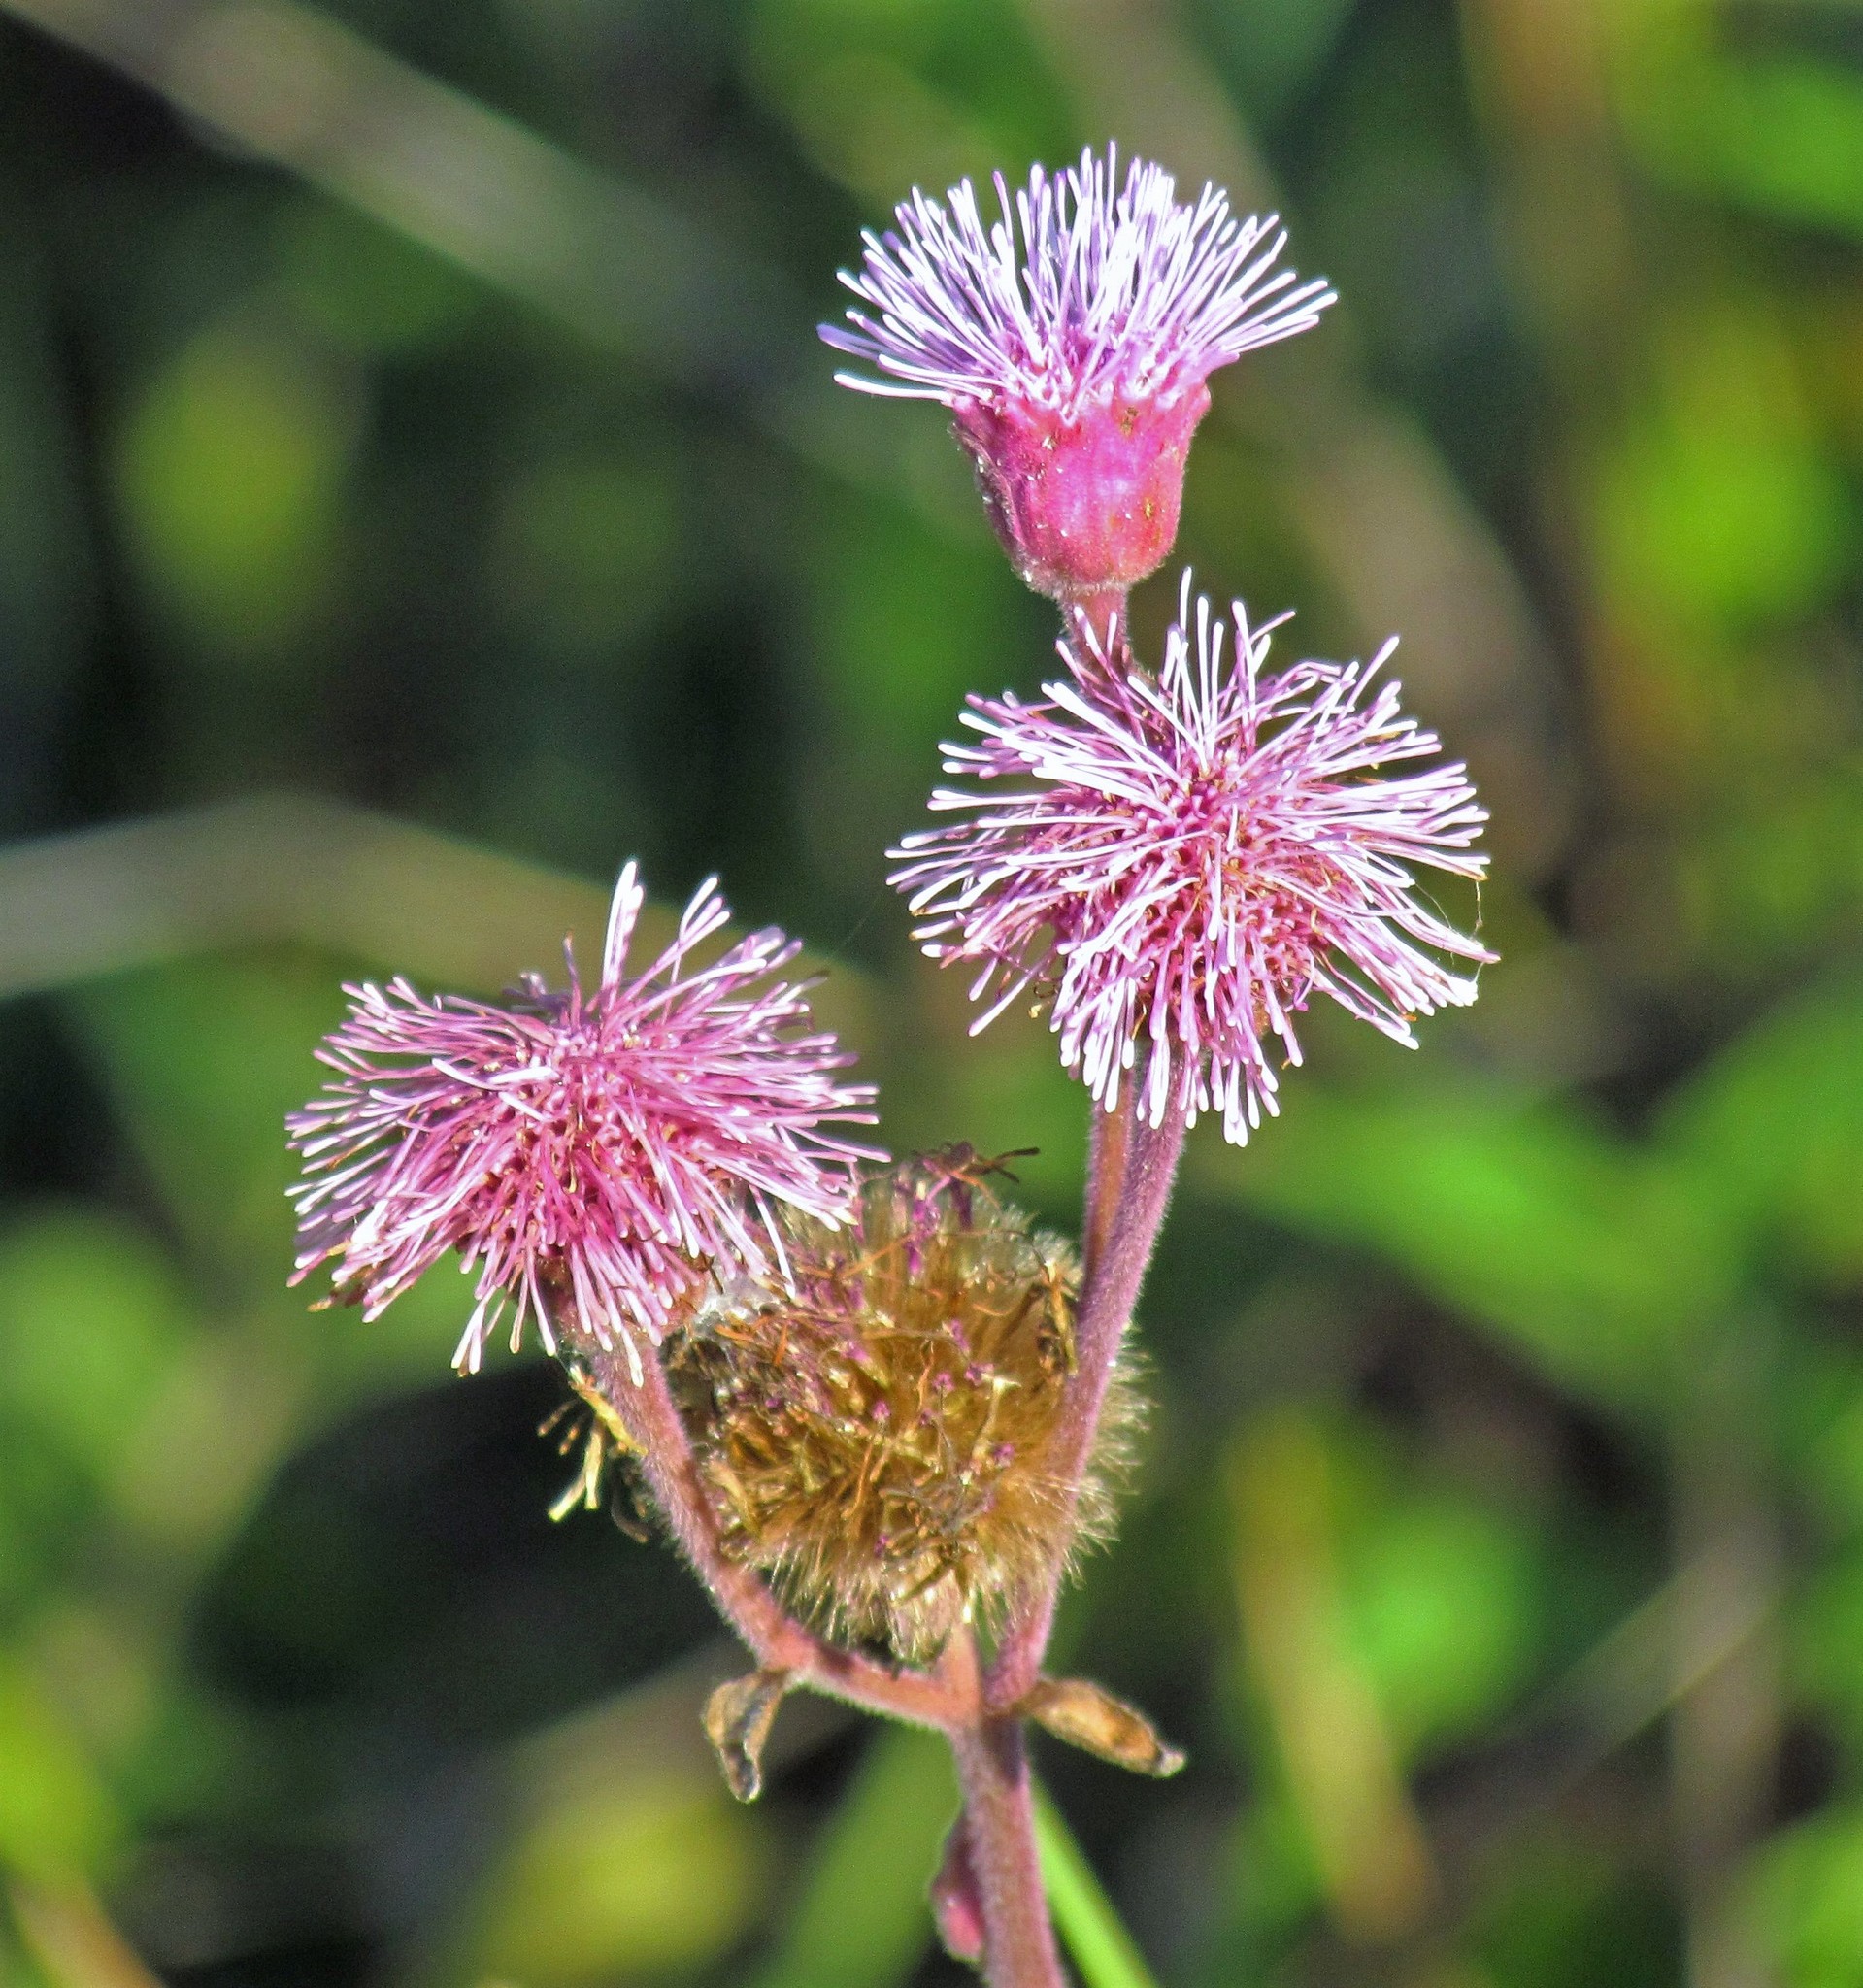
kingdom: Plantae
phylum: Tracheophyta
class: Magnoliopsida
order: Asterales
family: Asteraceae
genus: Campuloclinium
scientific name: Campuloclinium macrocephalum
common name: Pompomweed
